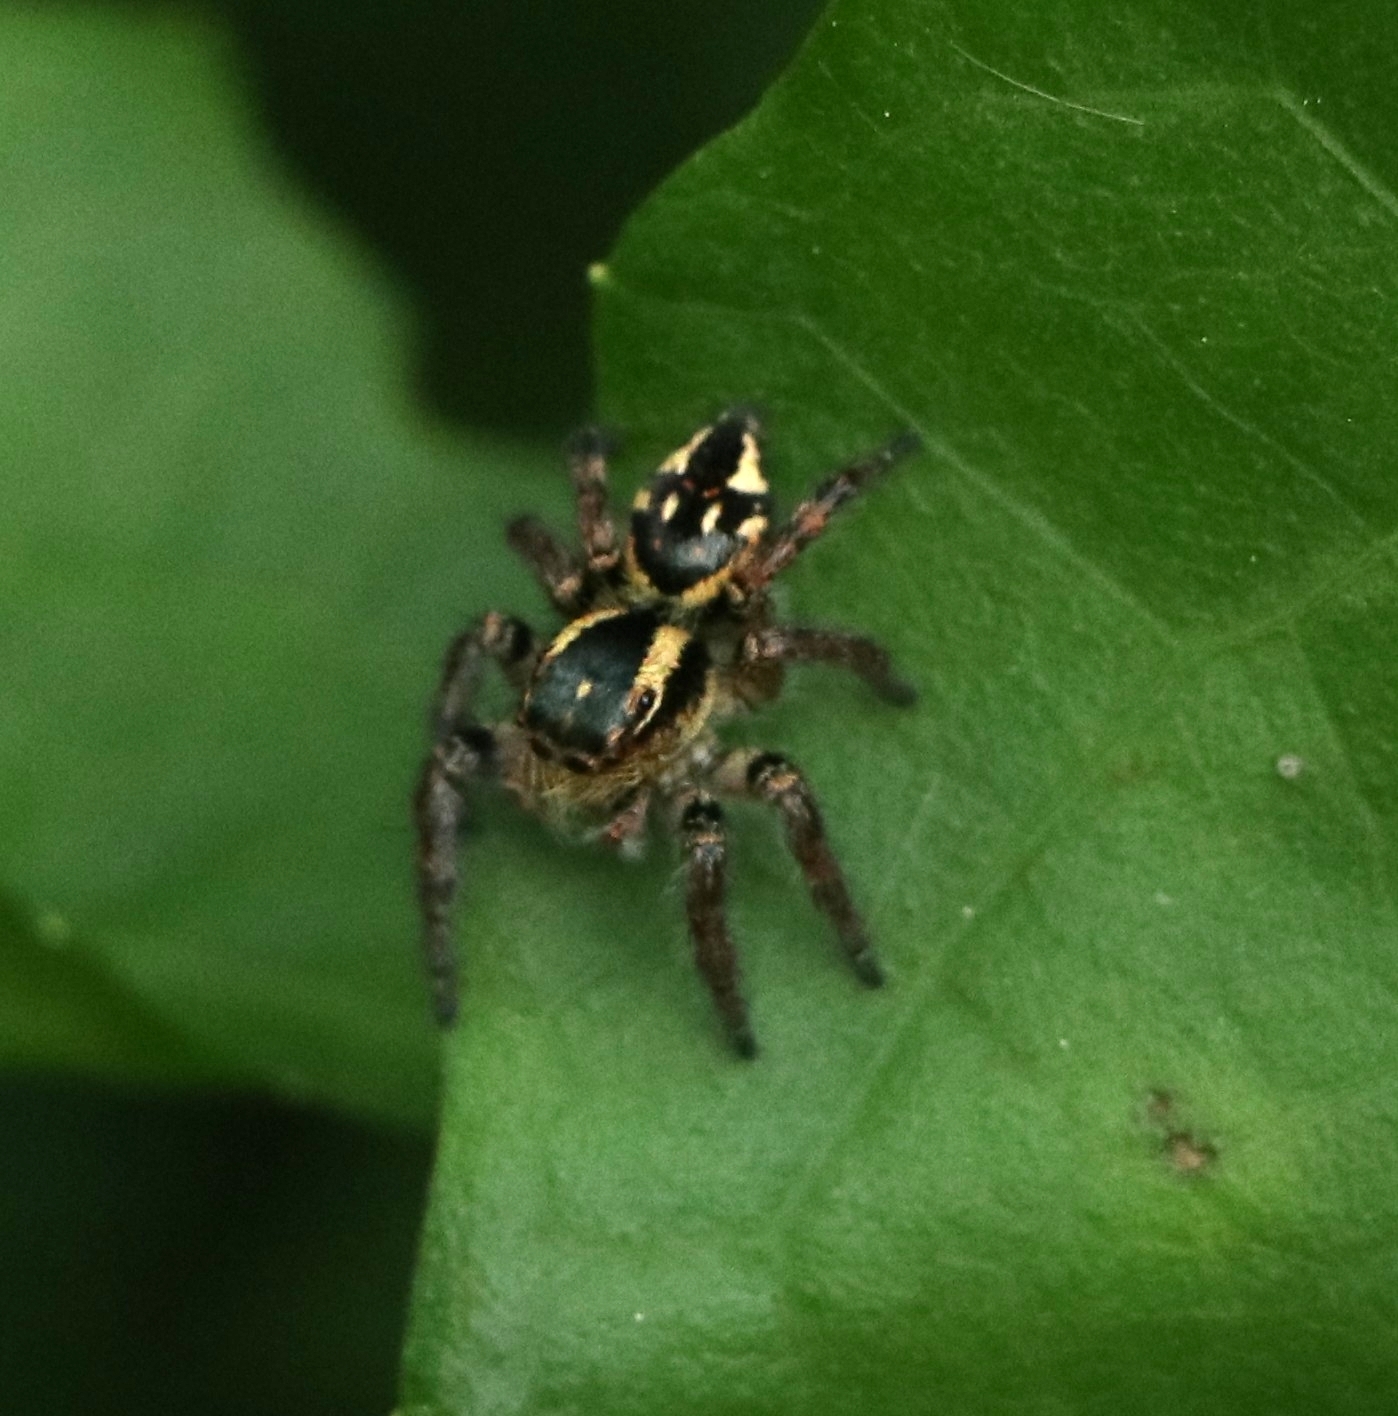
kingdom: Animalia
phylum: Arthropoda
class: Arachnida
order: Araneae
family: Salticidae
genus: Carrhotus
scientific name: Carrhotus viduus
